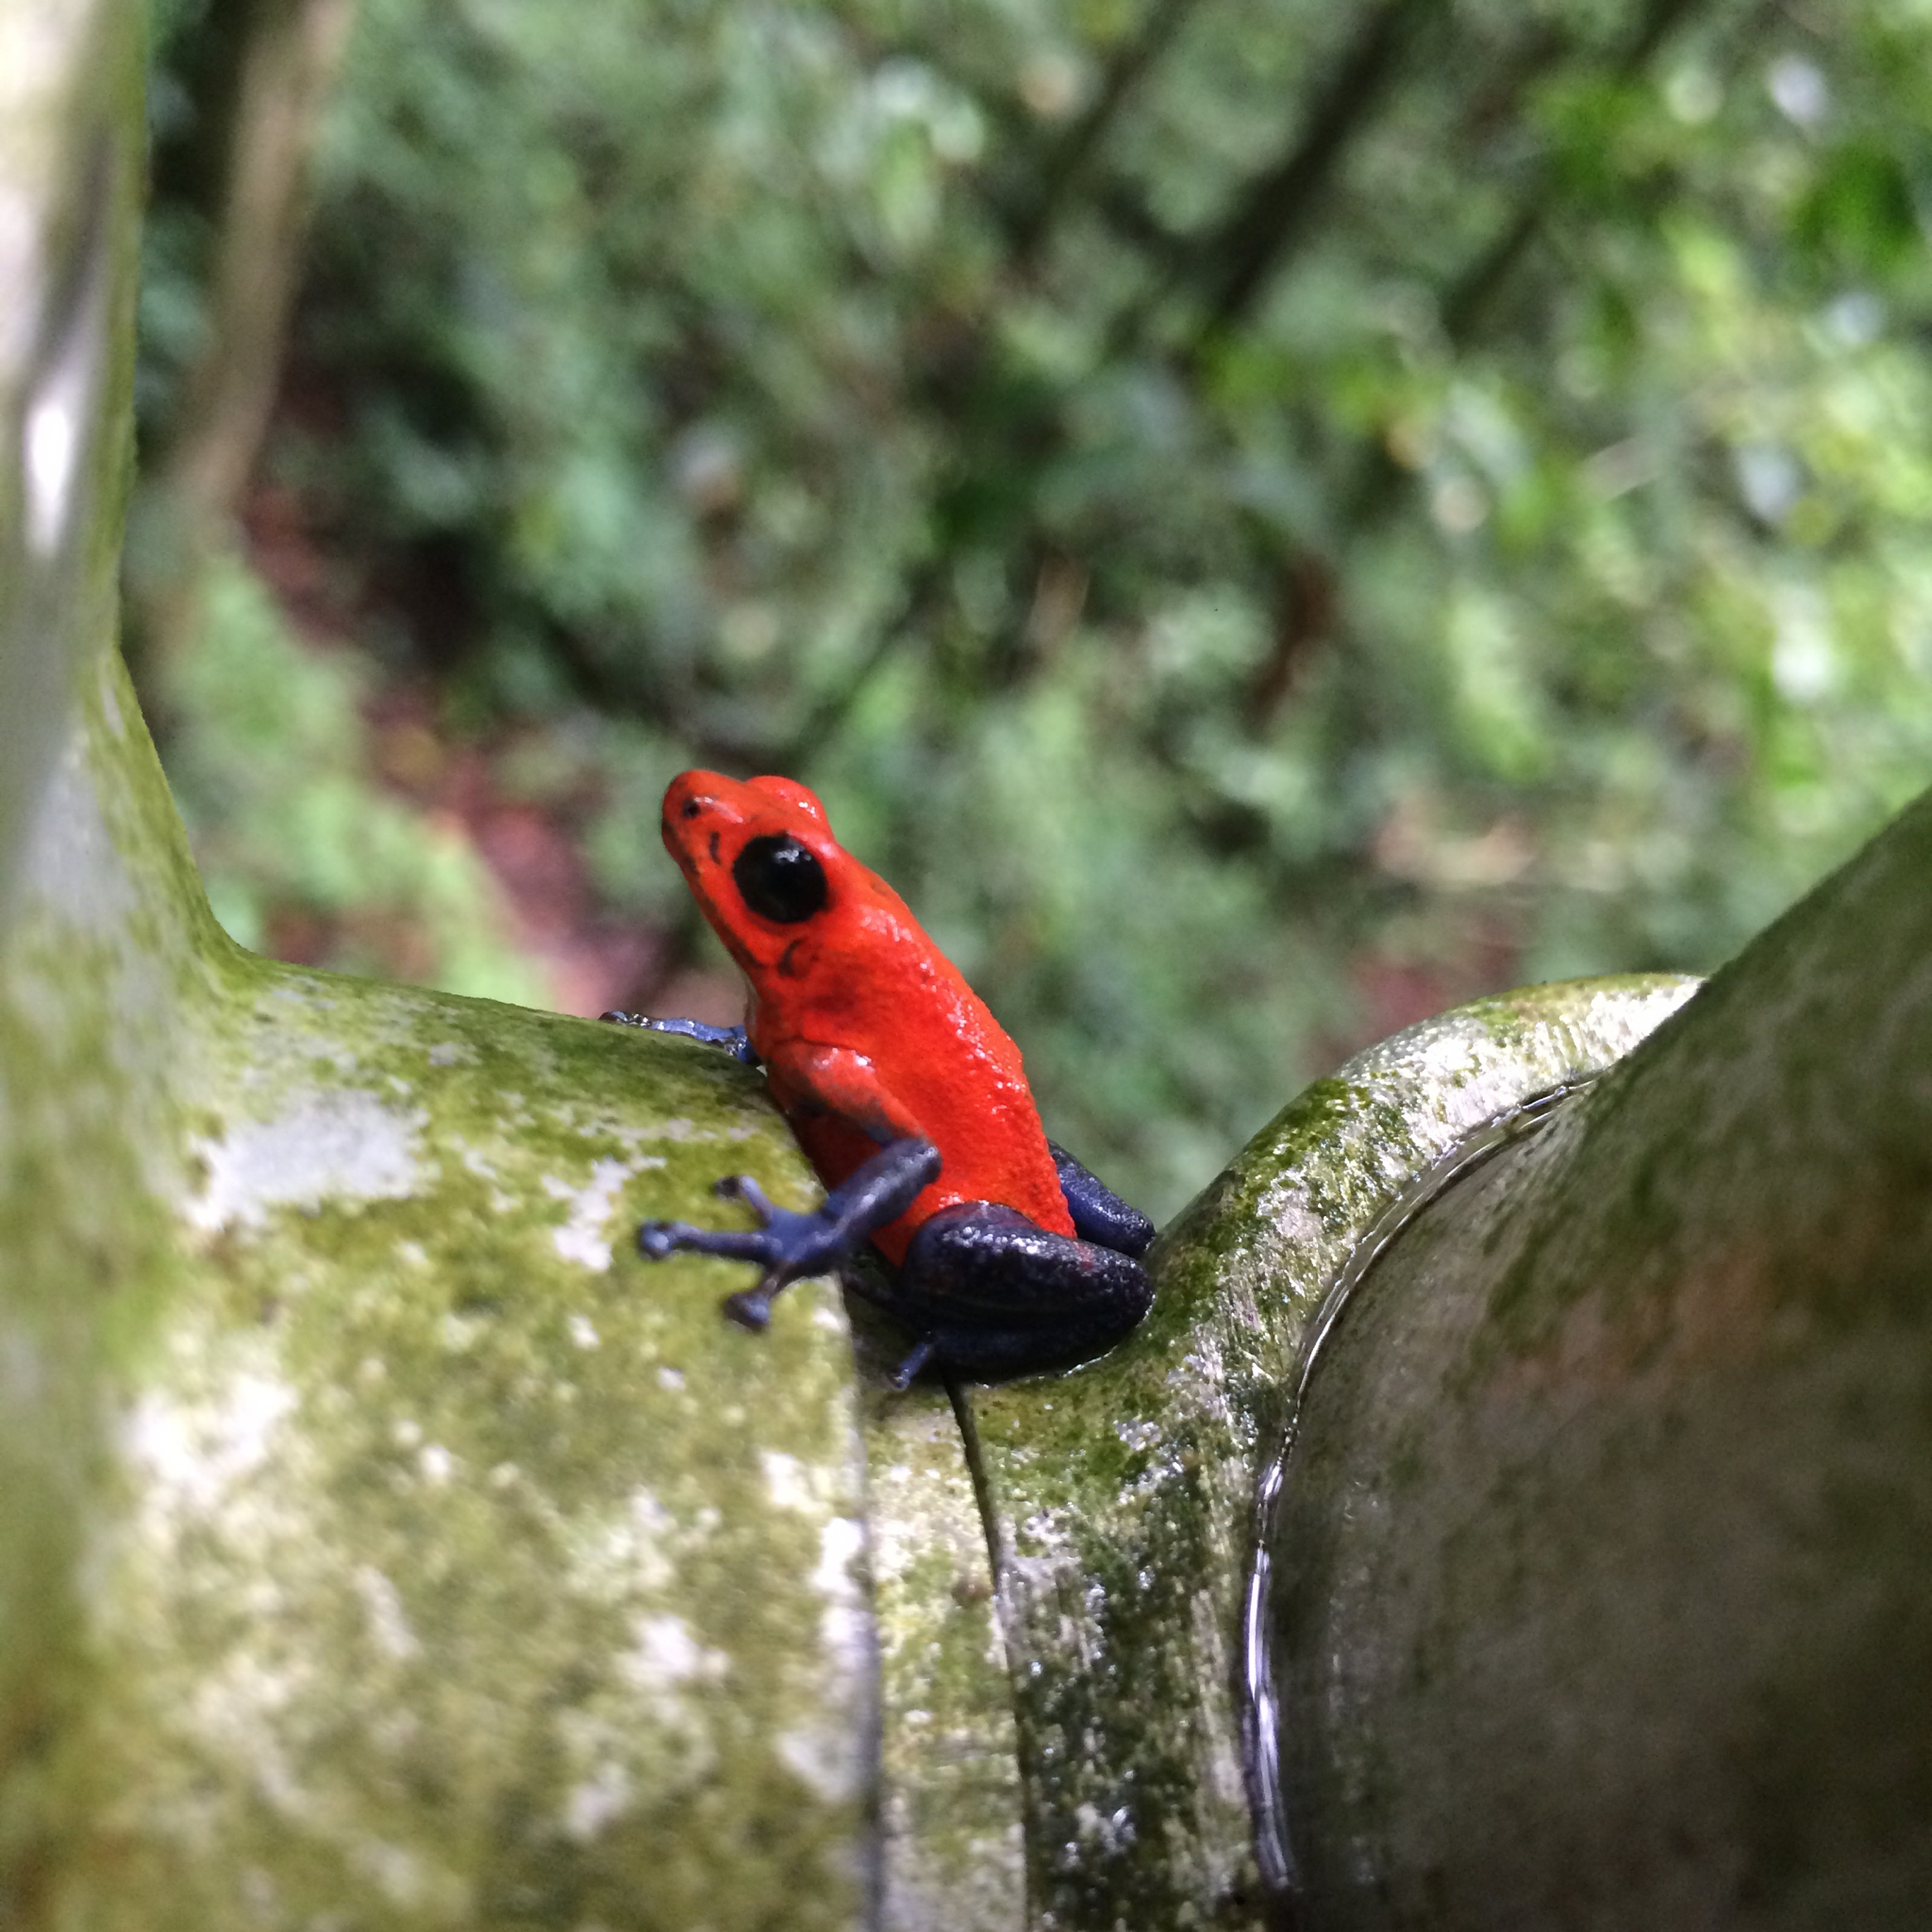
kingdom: Animalia
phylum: Chordata
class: Amphibia
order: Anura
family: Dendrobatidae
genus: Oophaga
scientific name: Oophaga pumilio
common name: Flaming poison frog
